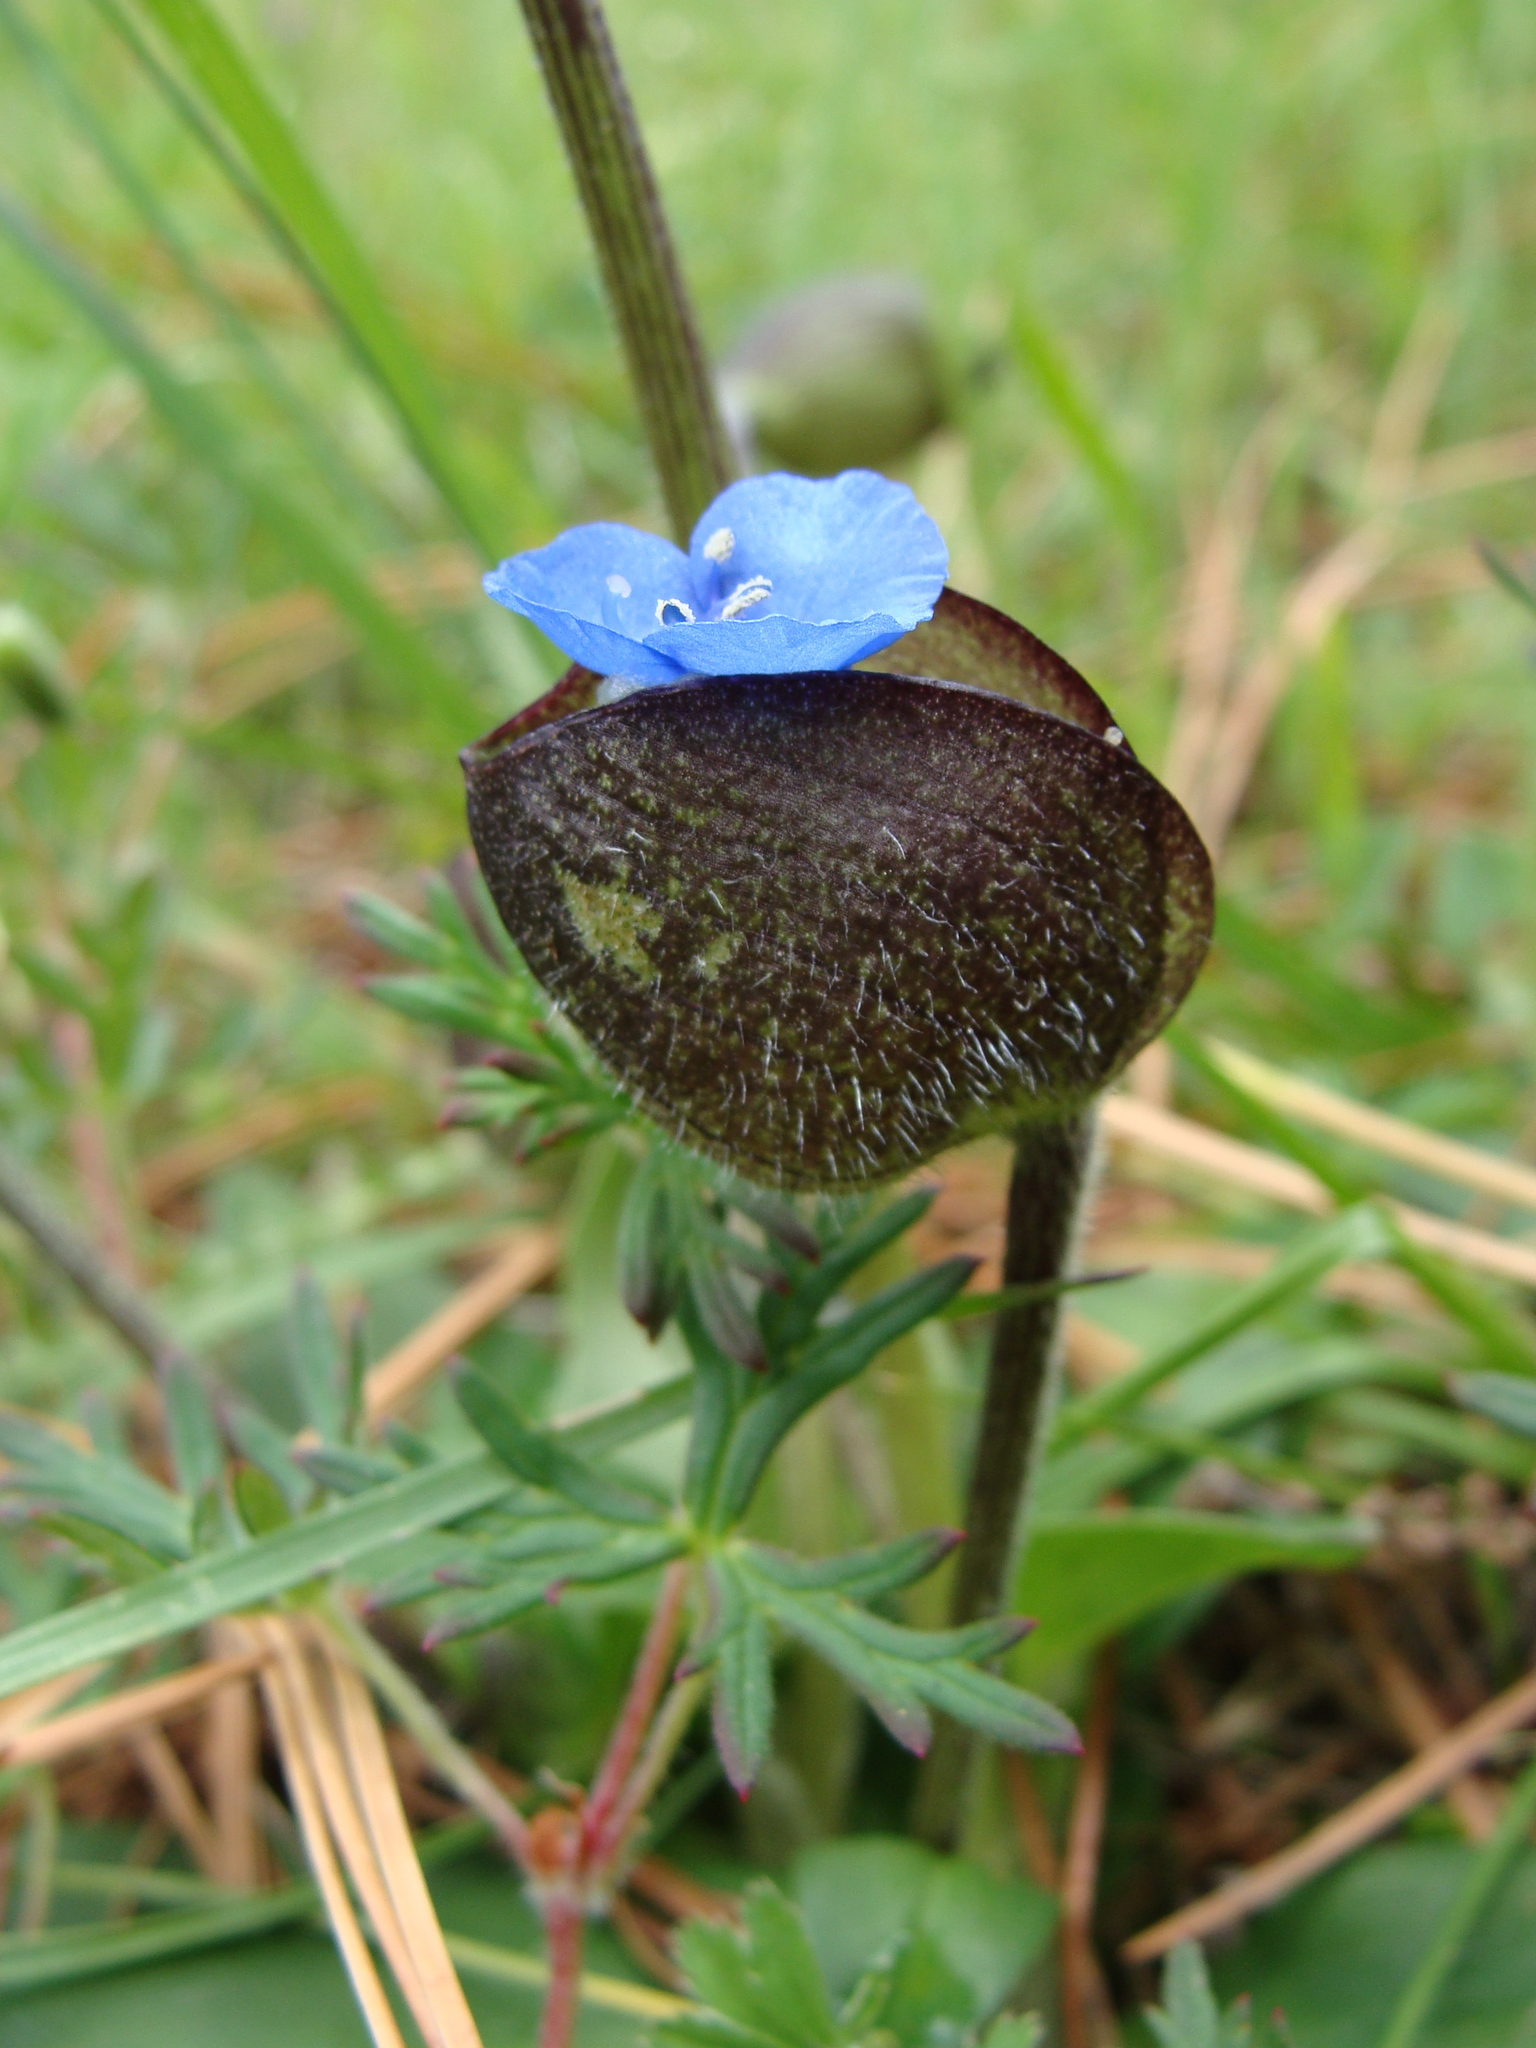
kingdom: Plantae
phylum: Tracheophyta
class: Liliopsida
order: Commelinales
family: Commelinaceae
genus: Commelina
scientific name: Commelina orchioides
